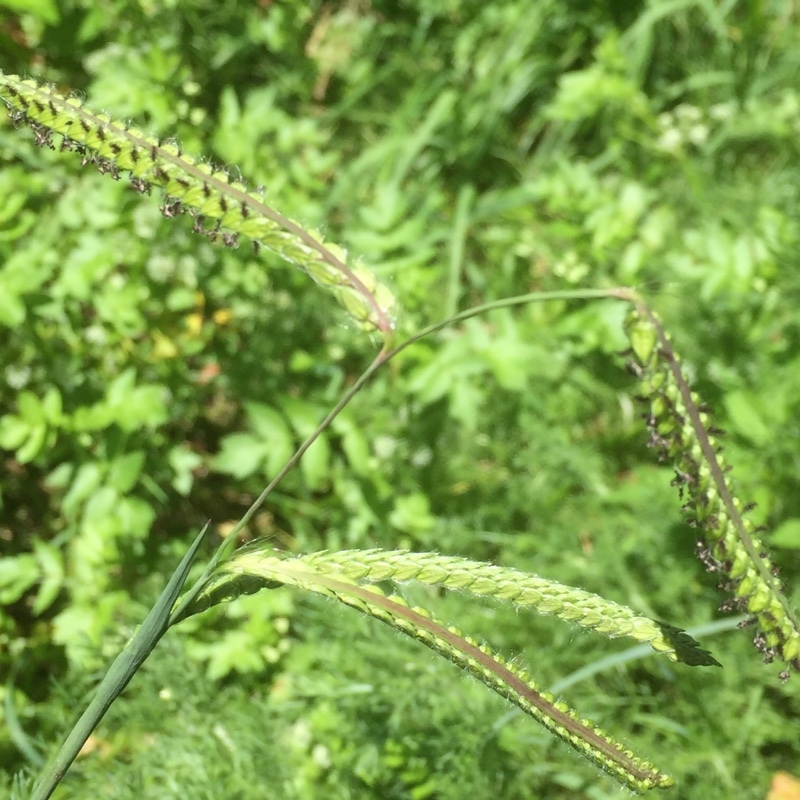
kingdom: Plantae
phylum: Tracheophyta
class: Liliopsida
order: Poales
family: Poaceae
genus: Paspalum
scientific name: Paspalum dilatatum
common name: Dallisgrass
